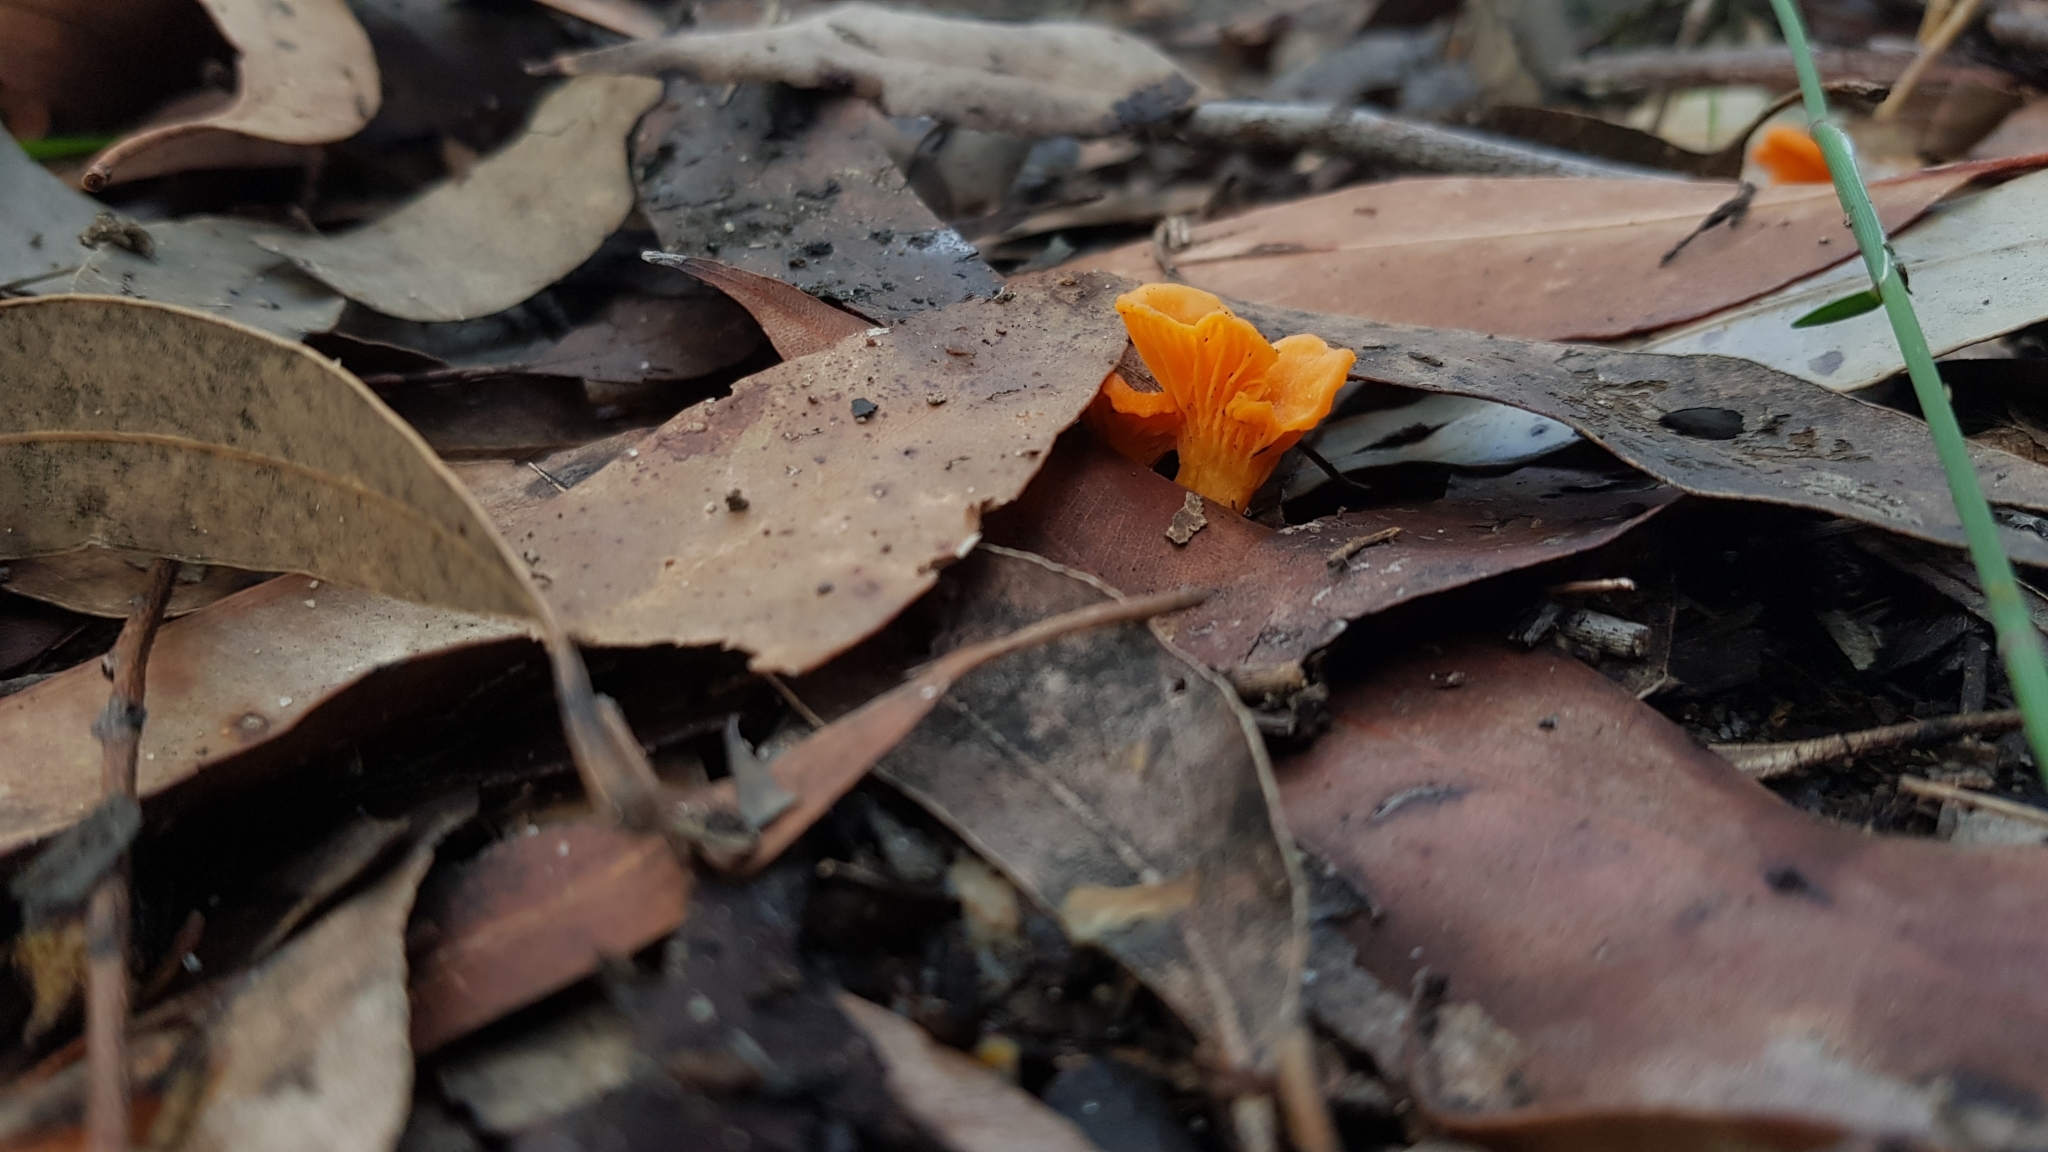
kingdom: Fungi
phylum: Basidiomycota
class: Agaricomycetes
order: Cantharellales
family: Hydnaceae
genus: Cantharellus
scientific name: Cantharellus
